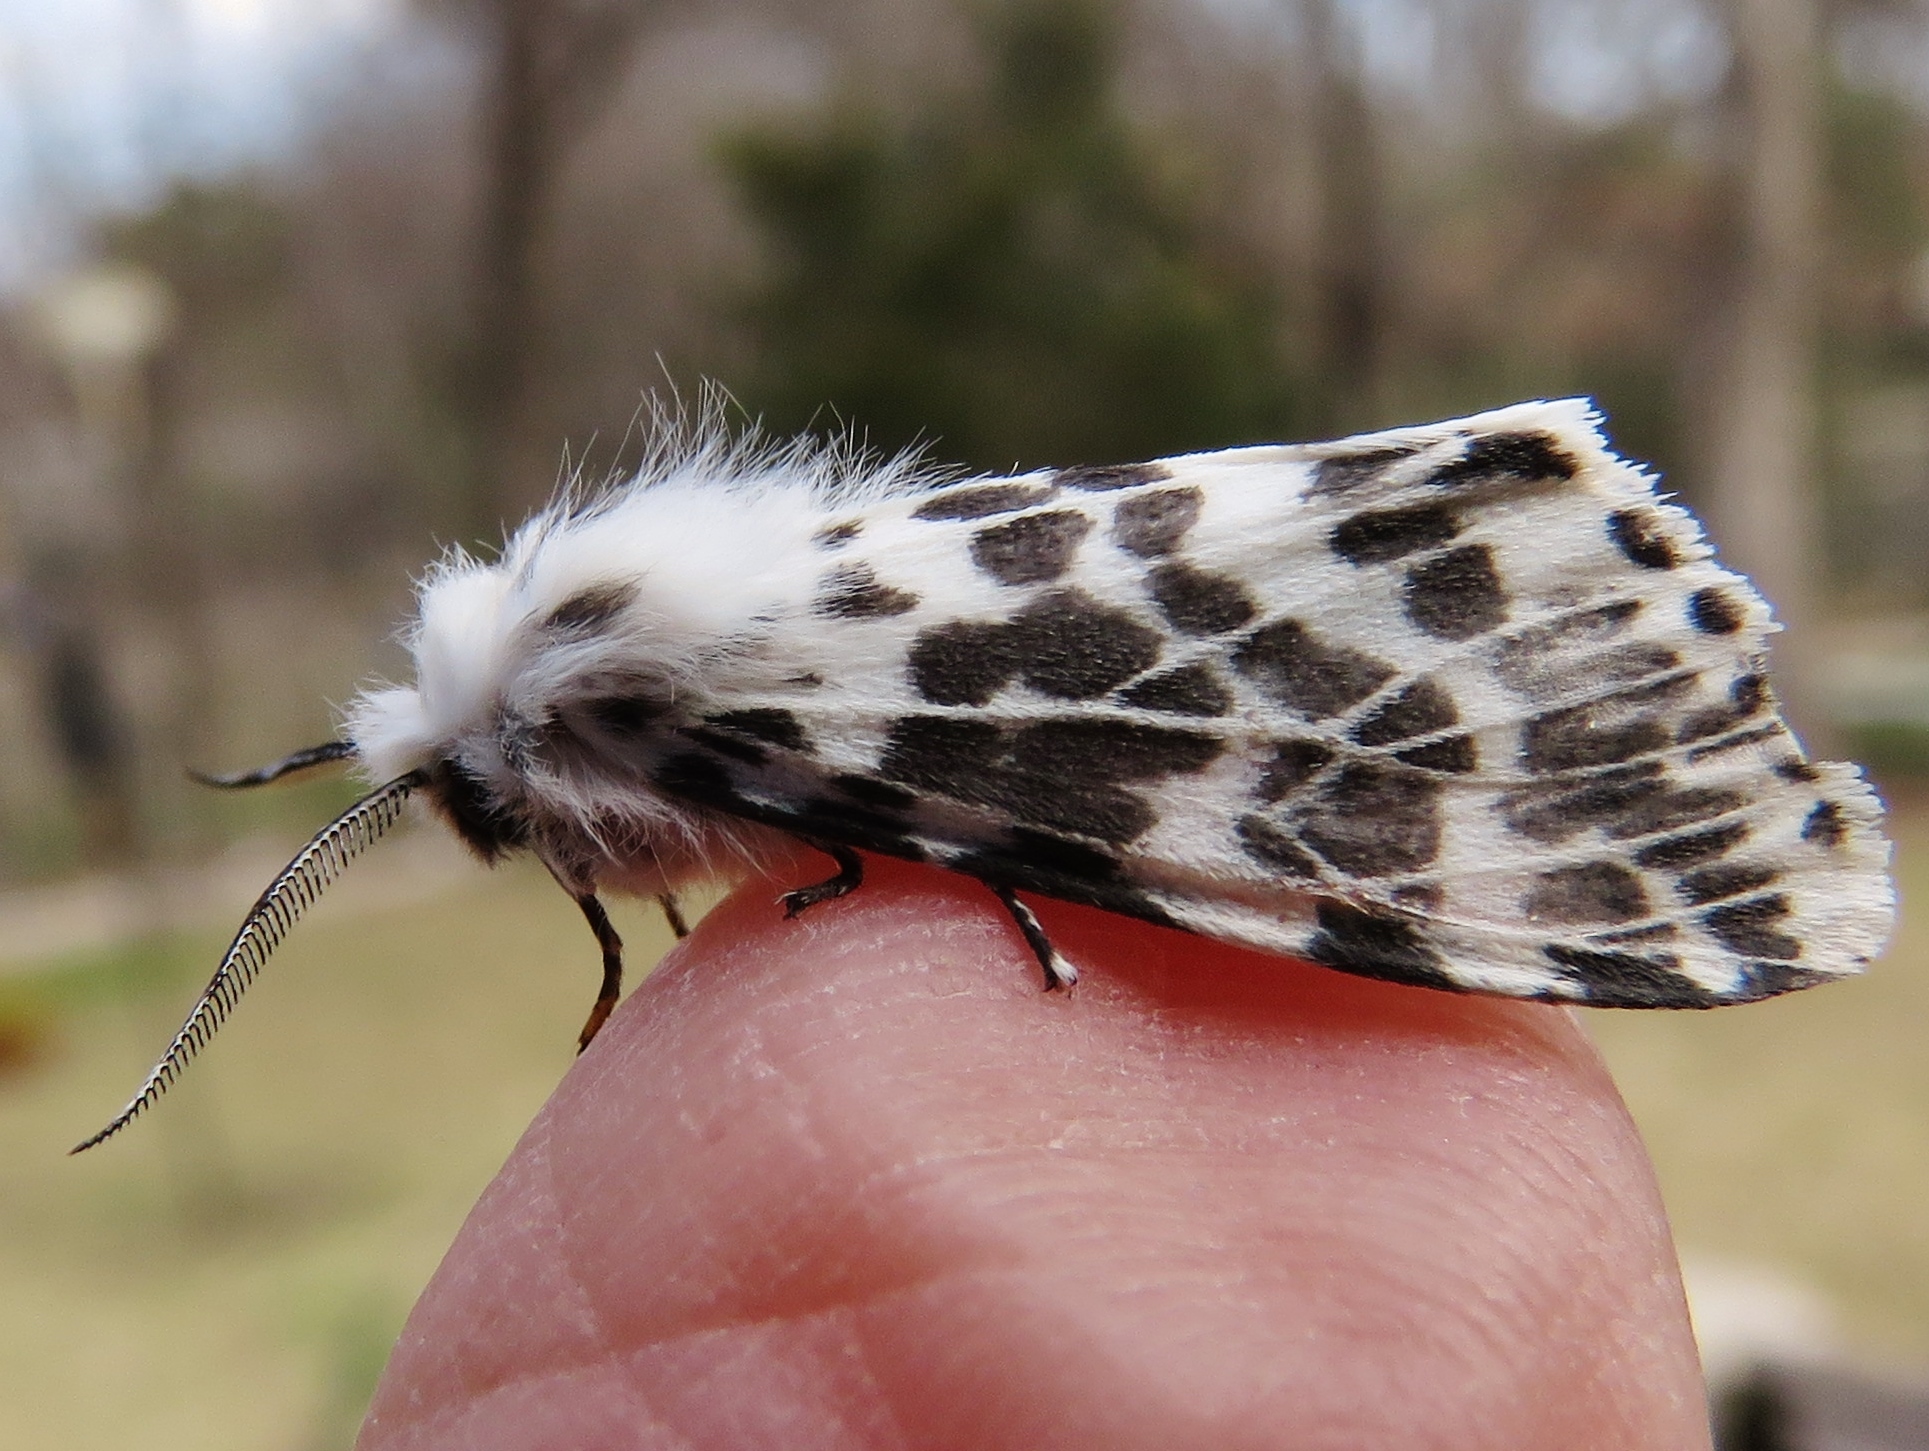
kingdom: Animalia
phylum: Arthropoda
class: Insecta
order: Lepidoptera
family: Erebidae
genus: Hyphantria
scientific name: Hyphantria cunea
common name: American white moth
